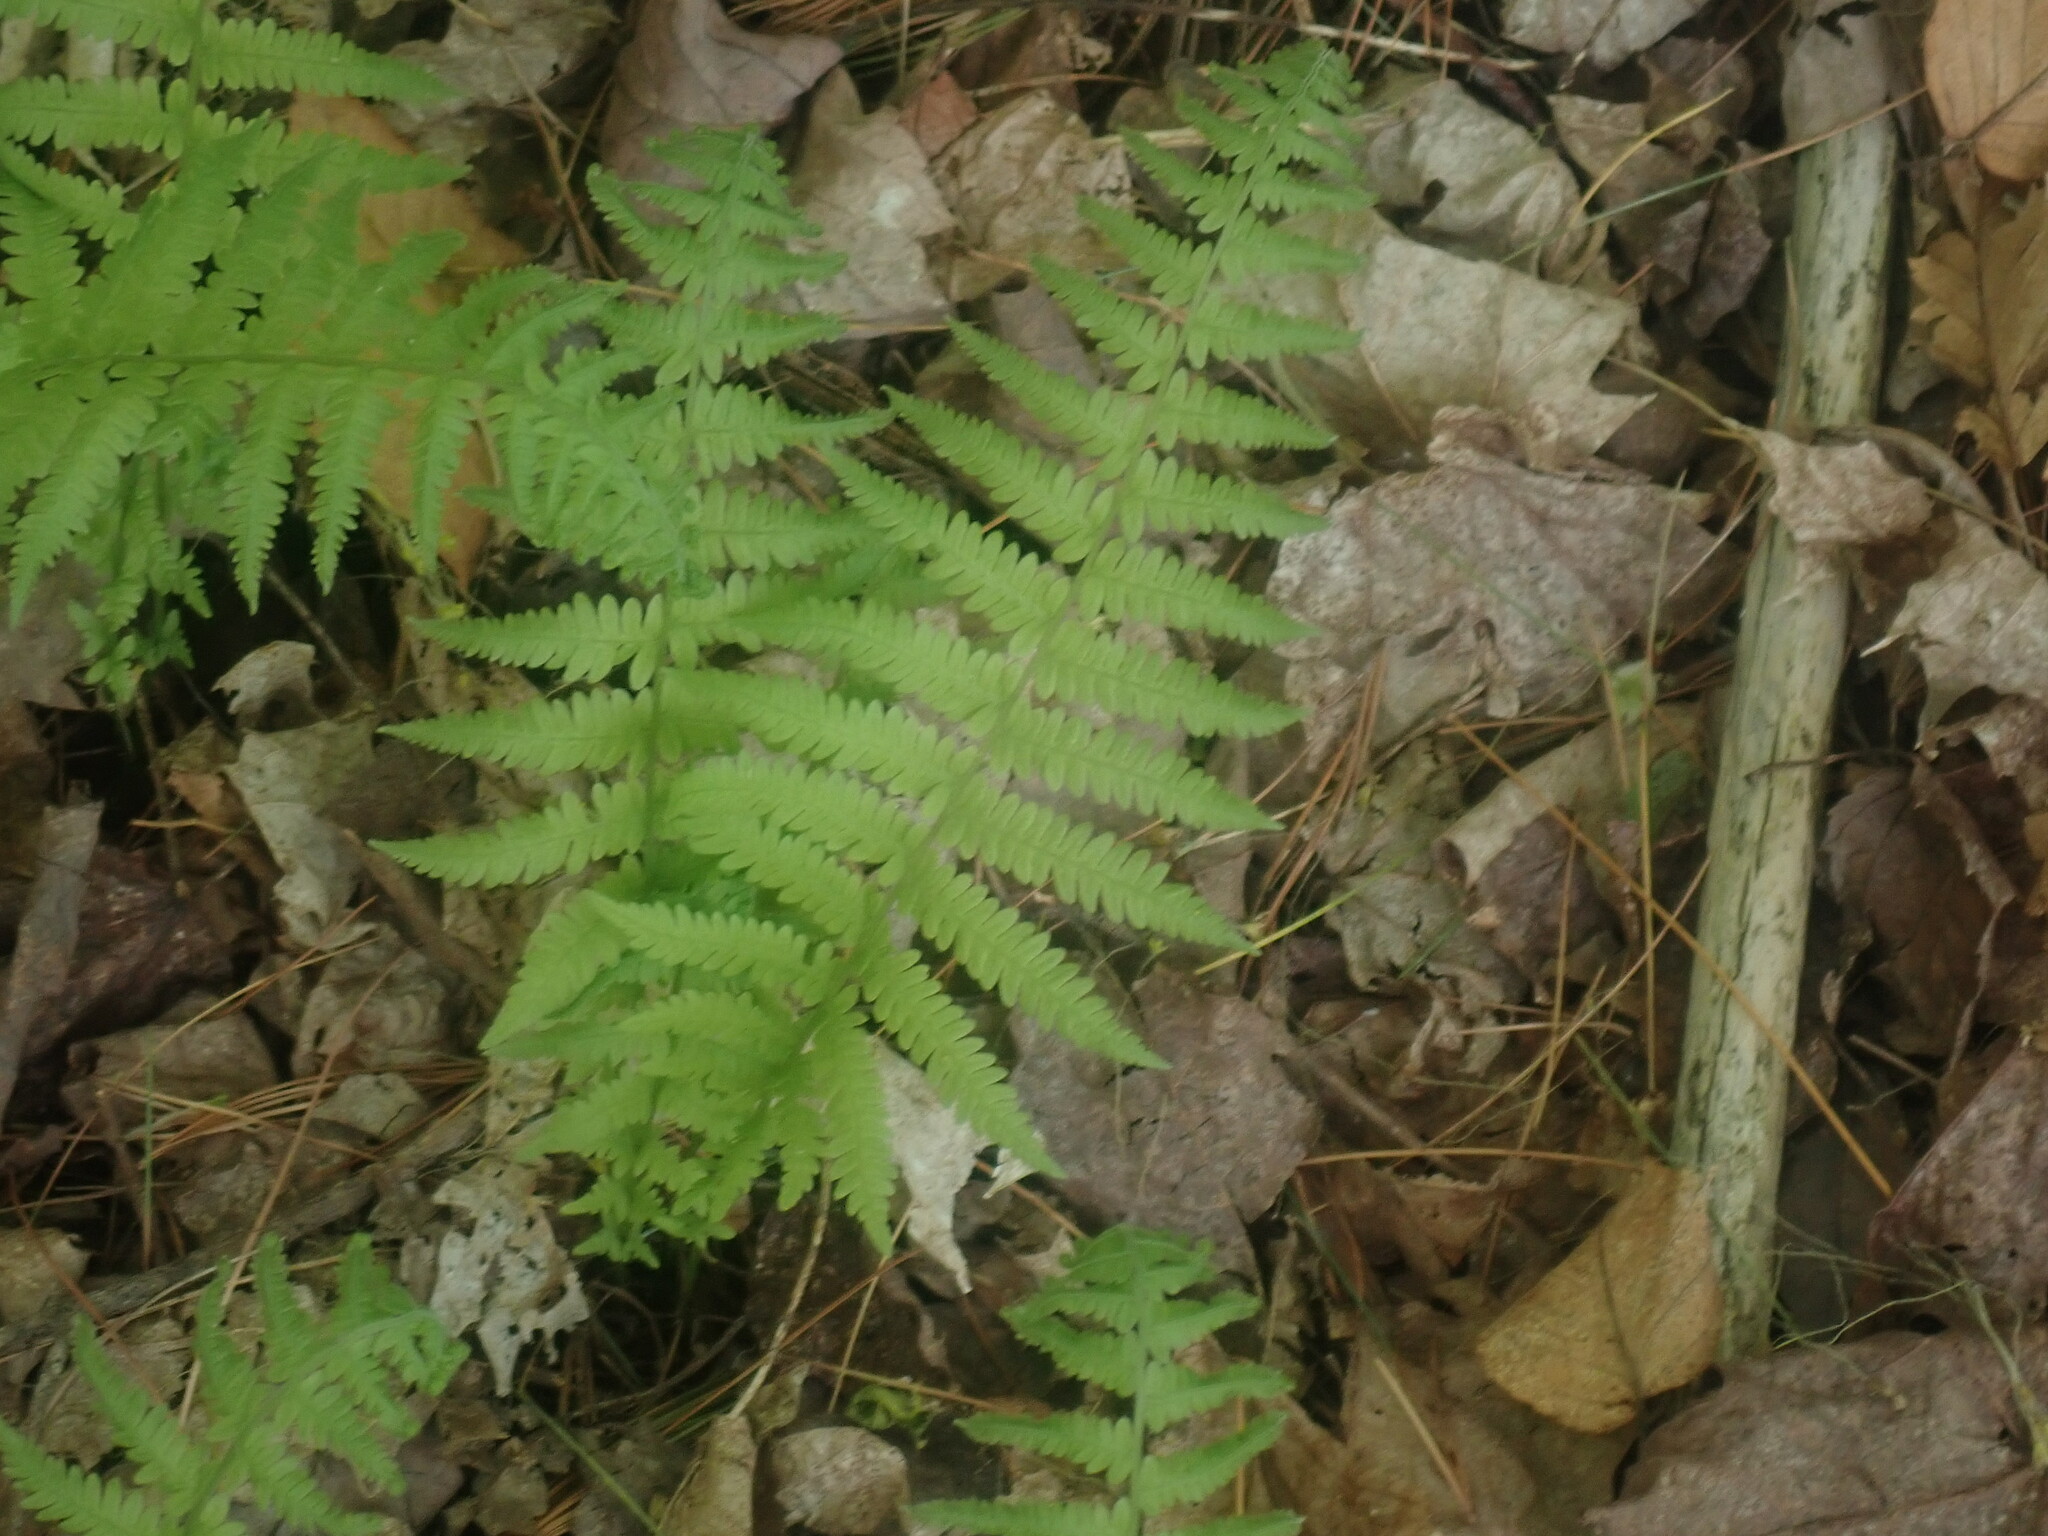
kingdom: Plantae
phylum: Tracheophyta
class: Polypodiopsida
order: Polypodiales
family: Thelypteridaceae
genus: Amauropelta
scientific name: Amauropelta noveboracensis
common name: New york fern
